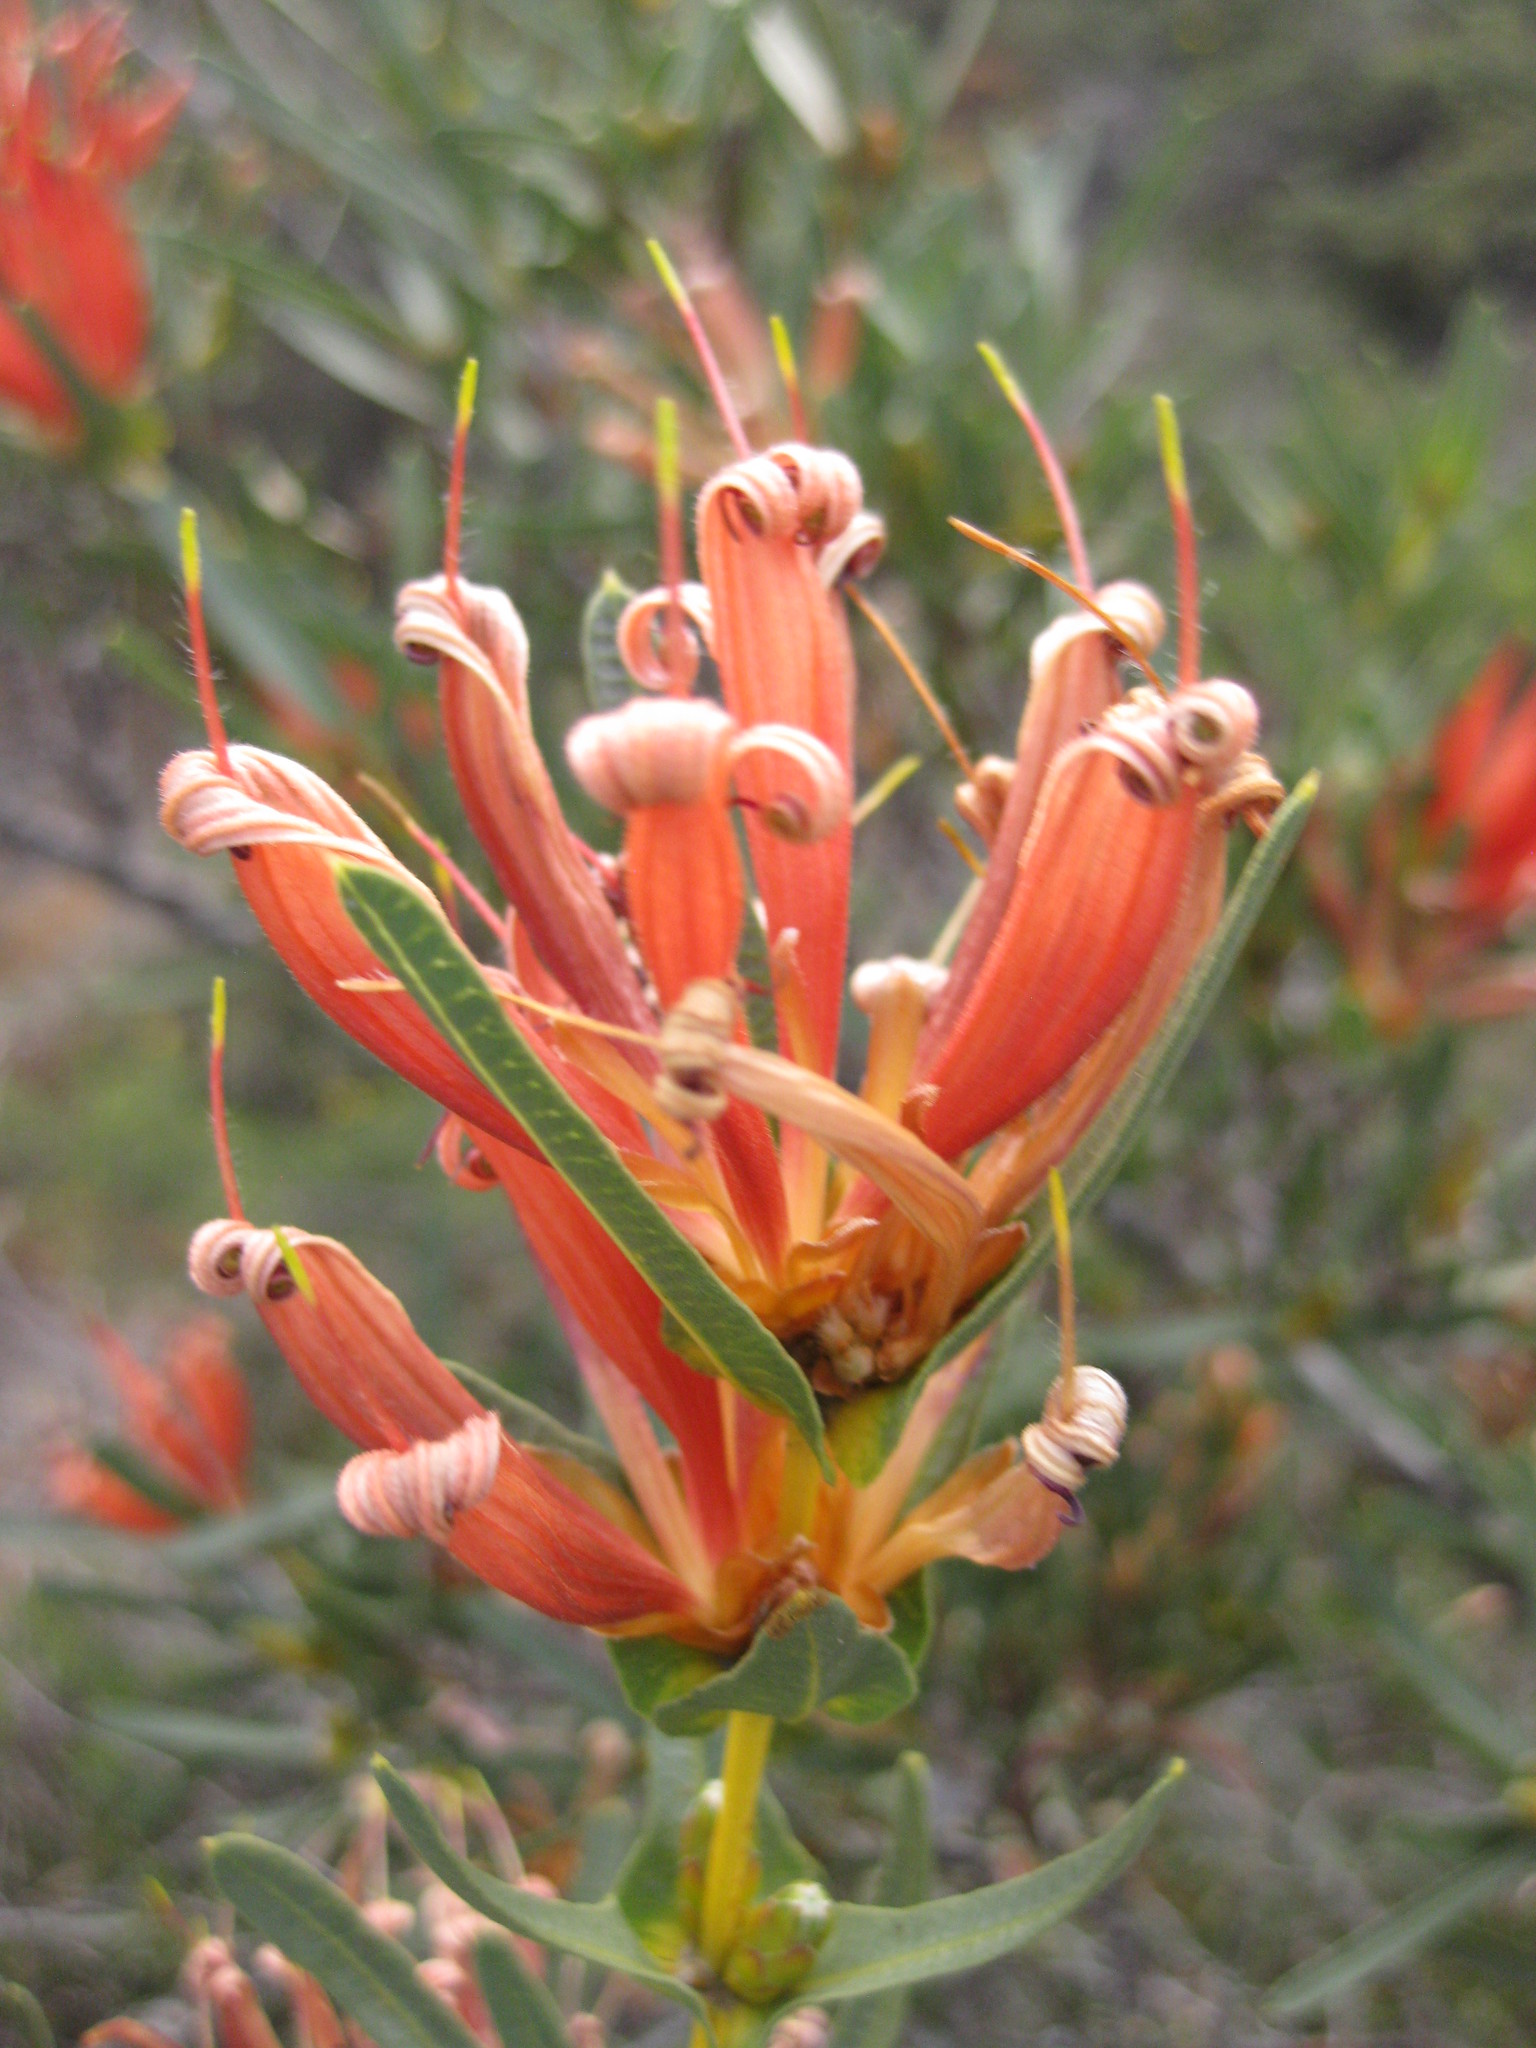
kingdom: Plantae
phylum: Tracheophyta
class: Magnoliopsida
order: Proteales
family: Proteaceae
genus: Lambertia
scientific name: Lambertia multiflora
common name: Many-flowered honeysuckle
